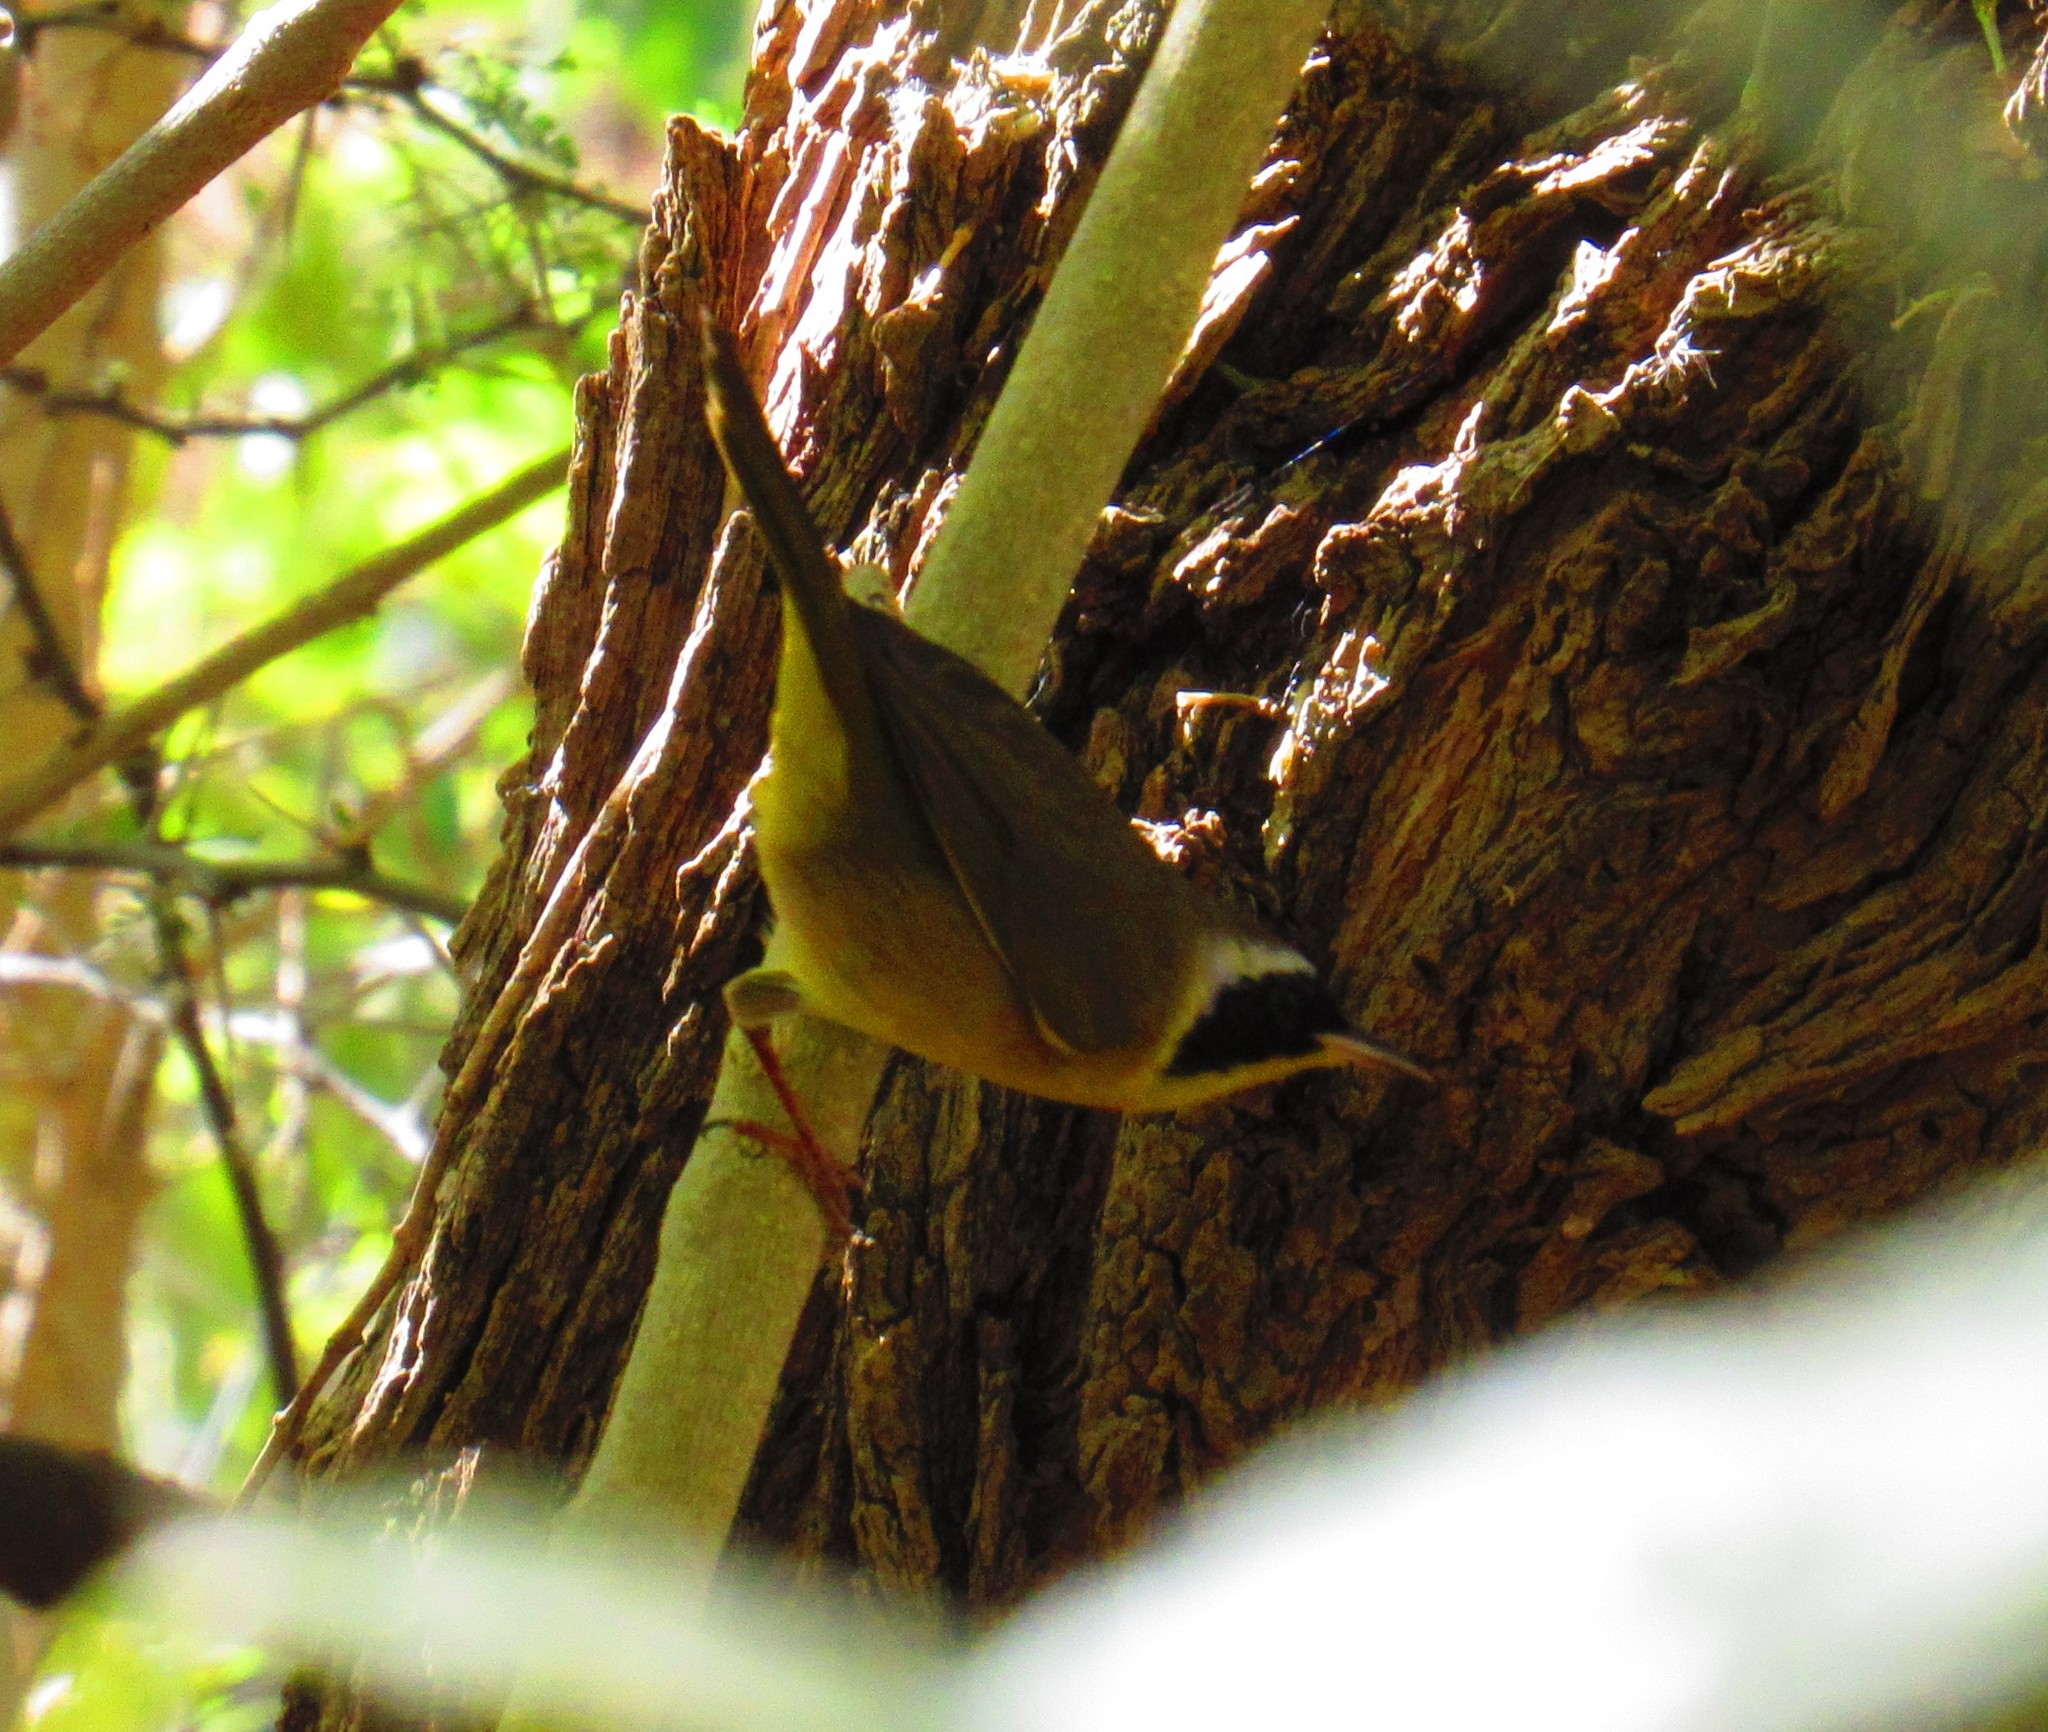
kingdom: Animalia
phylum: Chordata
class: Aves
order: Passeriformes
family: Parulidae
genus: Geothlypis
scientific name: Geothlypis trichas
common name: Common yellowthroat
